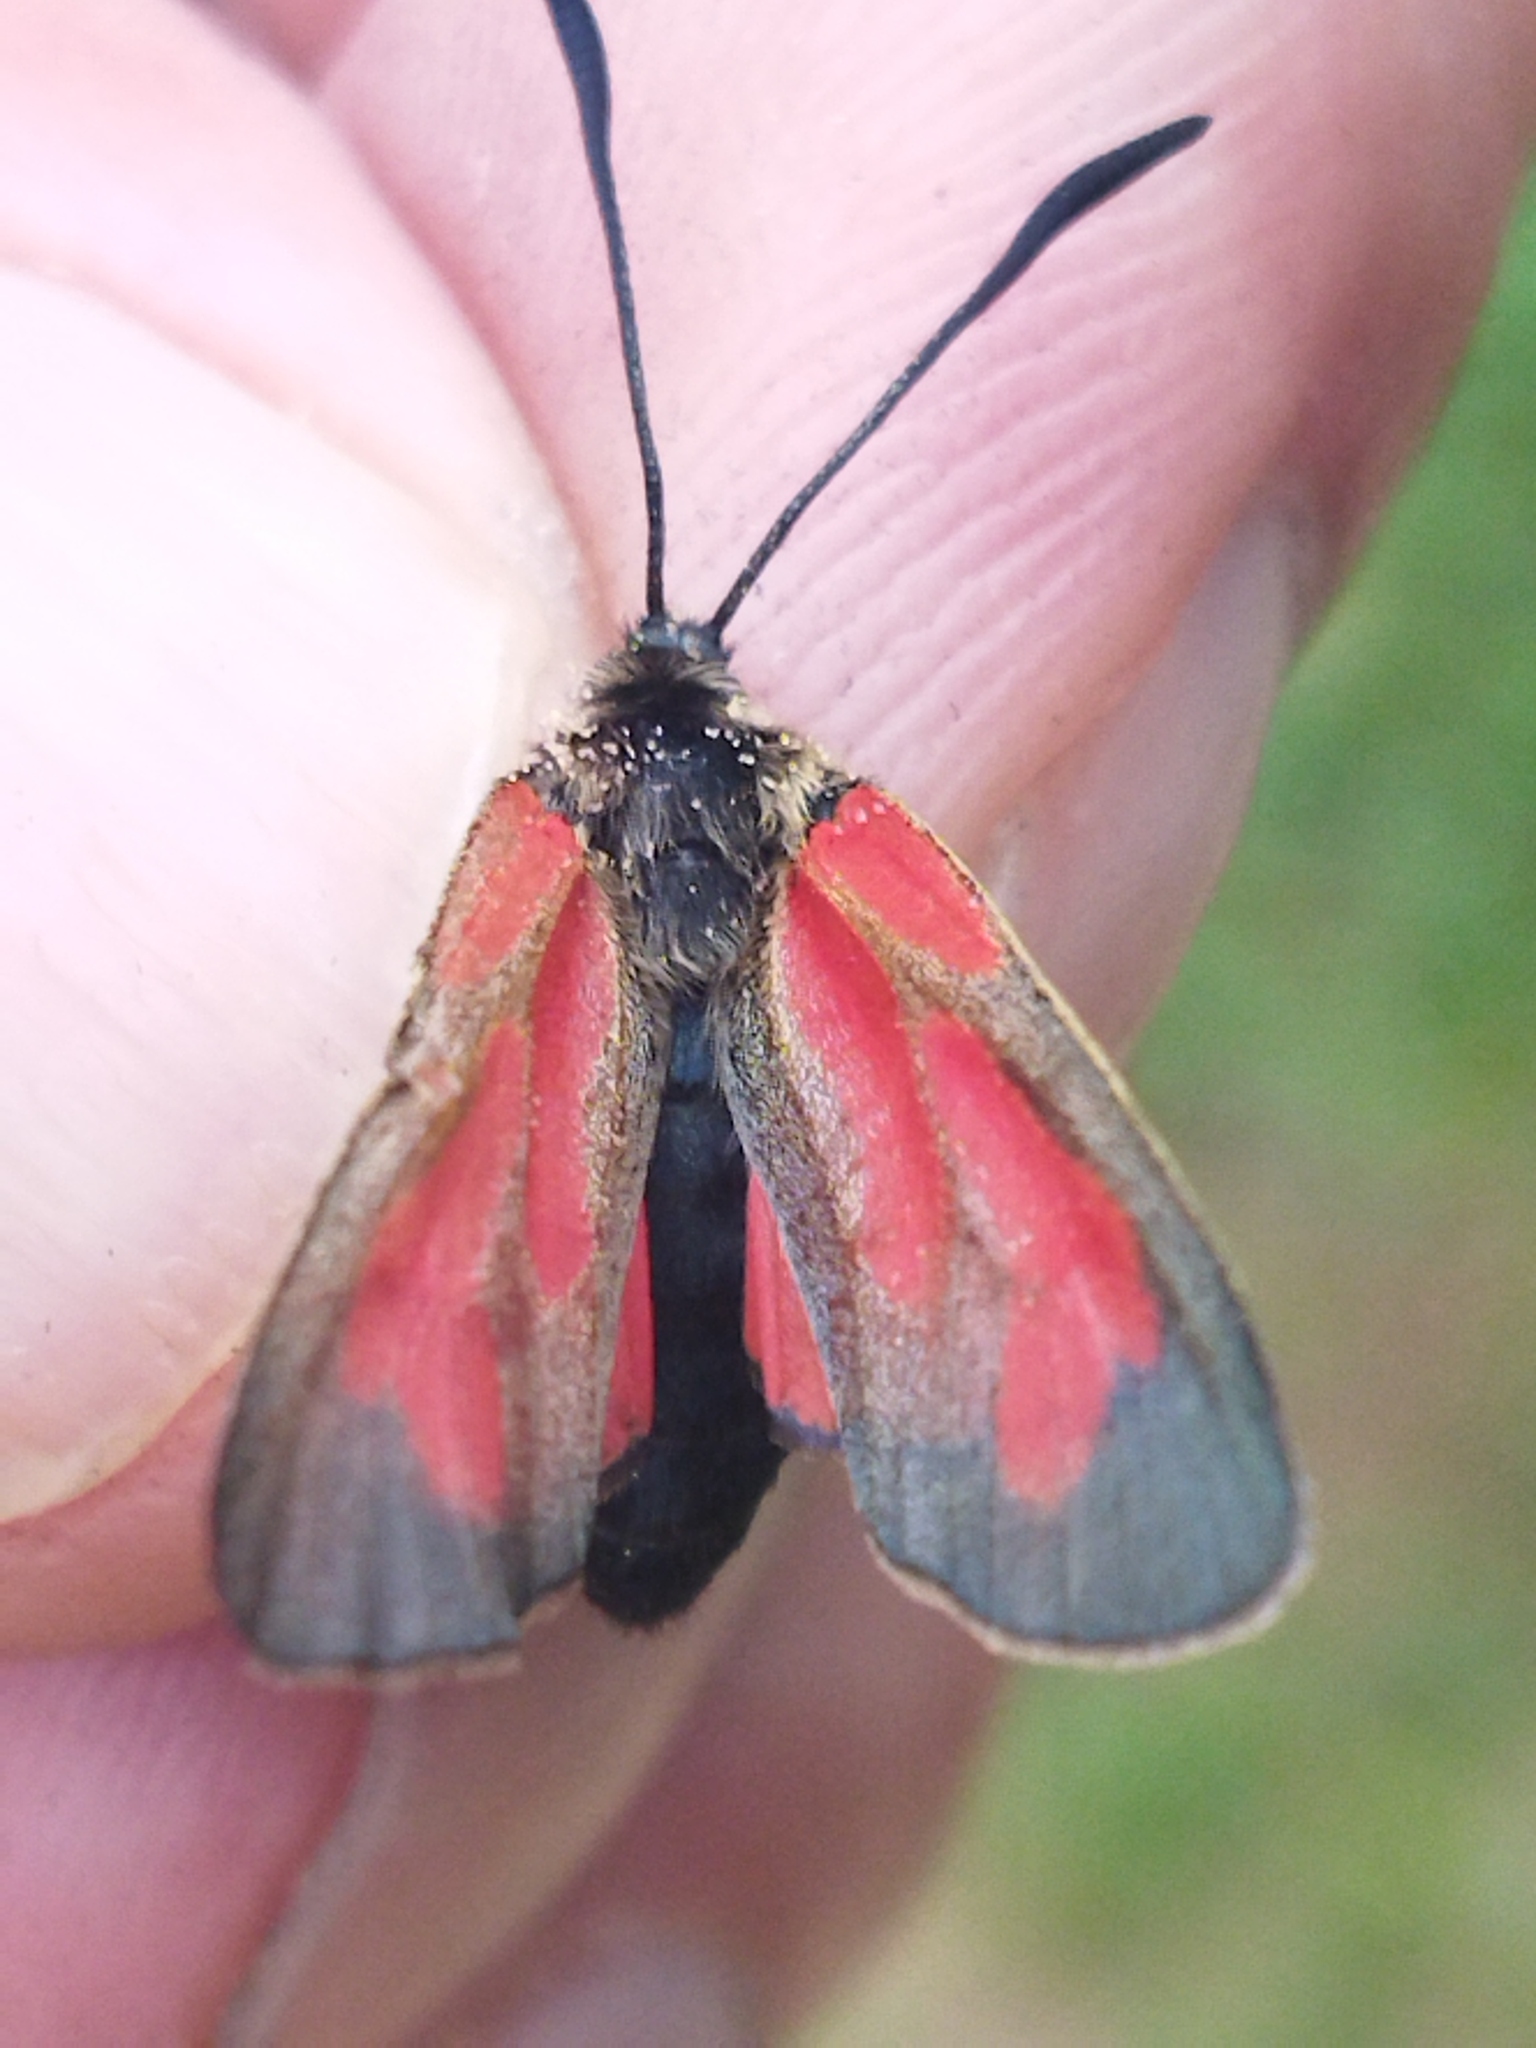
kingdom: Animalia
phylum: Arthropoda
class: Insecta
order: Lepidoptera
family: Zygaenidae
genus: Zygaena
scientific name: Zygaena
